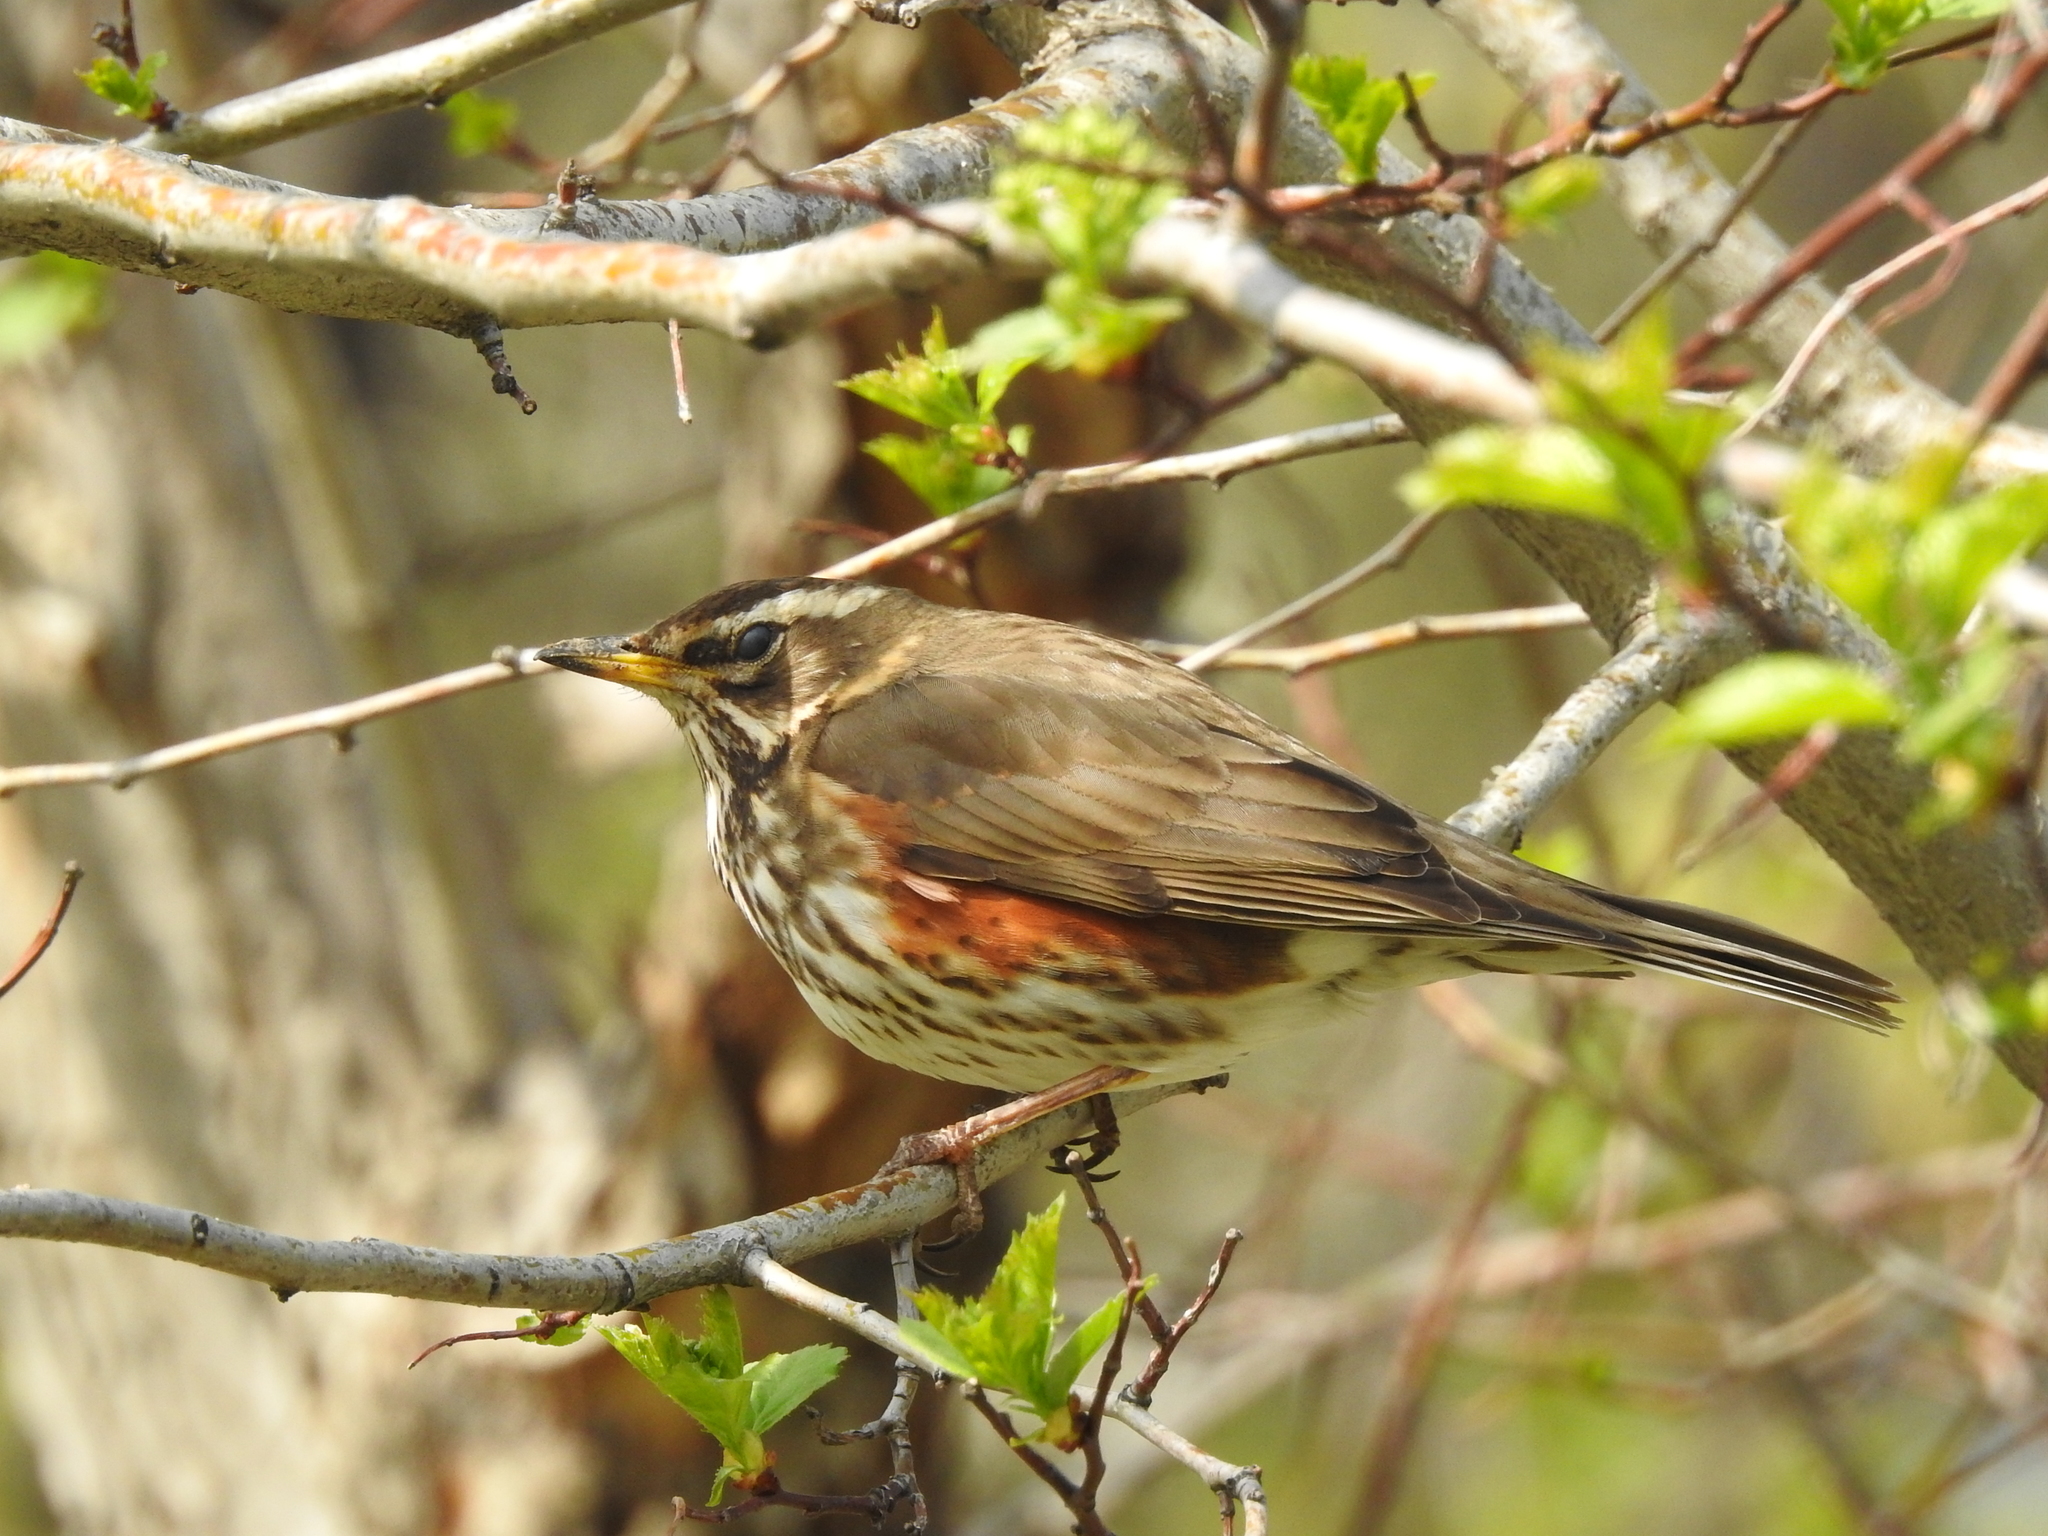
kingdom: Animalia
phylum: Chordata
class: Aves
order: Passeriformes
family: Turdidae
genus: Turdus
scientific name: Turdus iliacus
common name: Redwing
